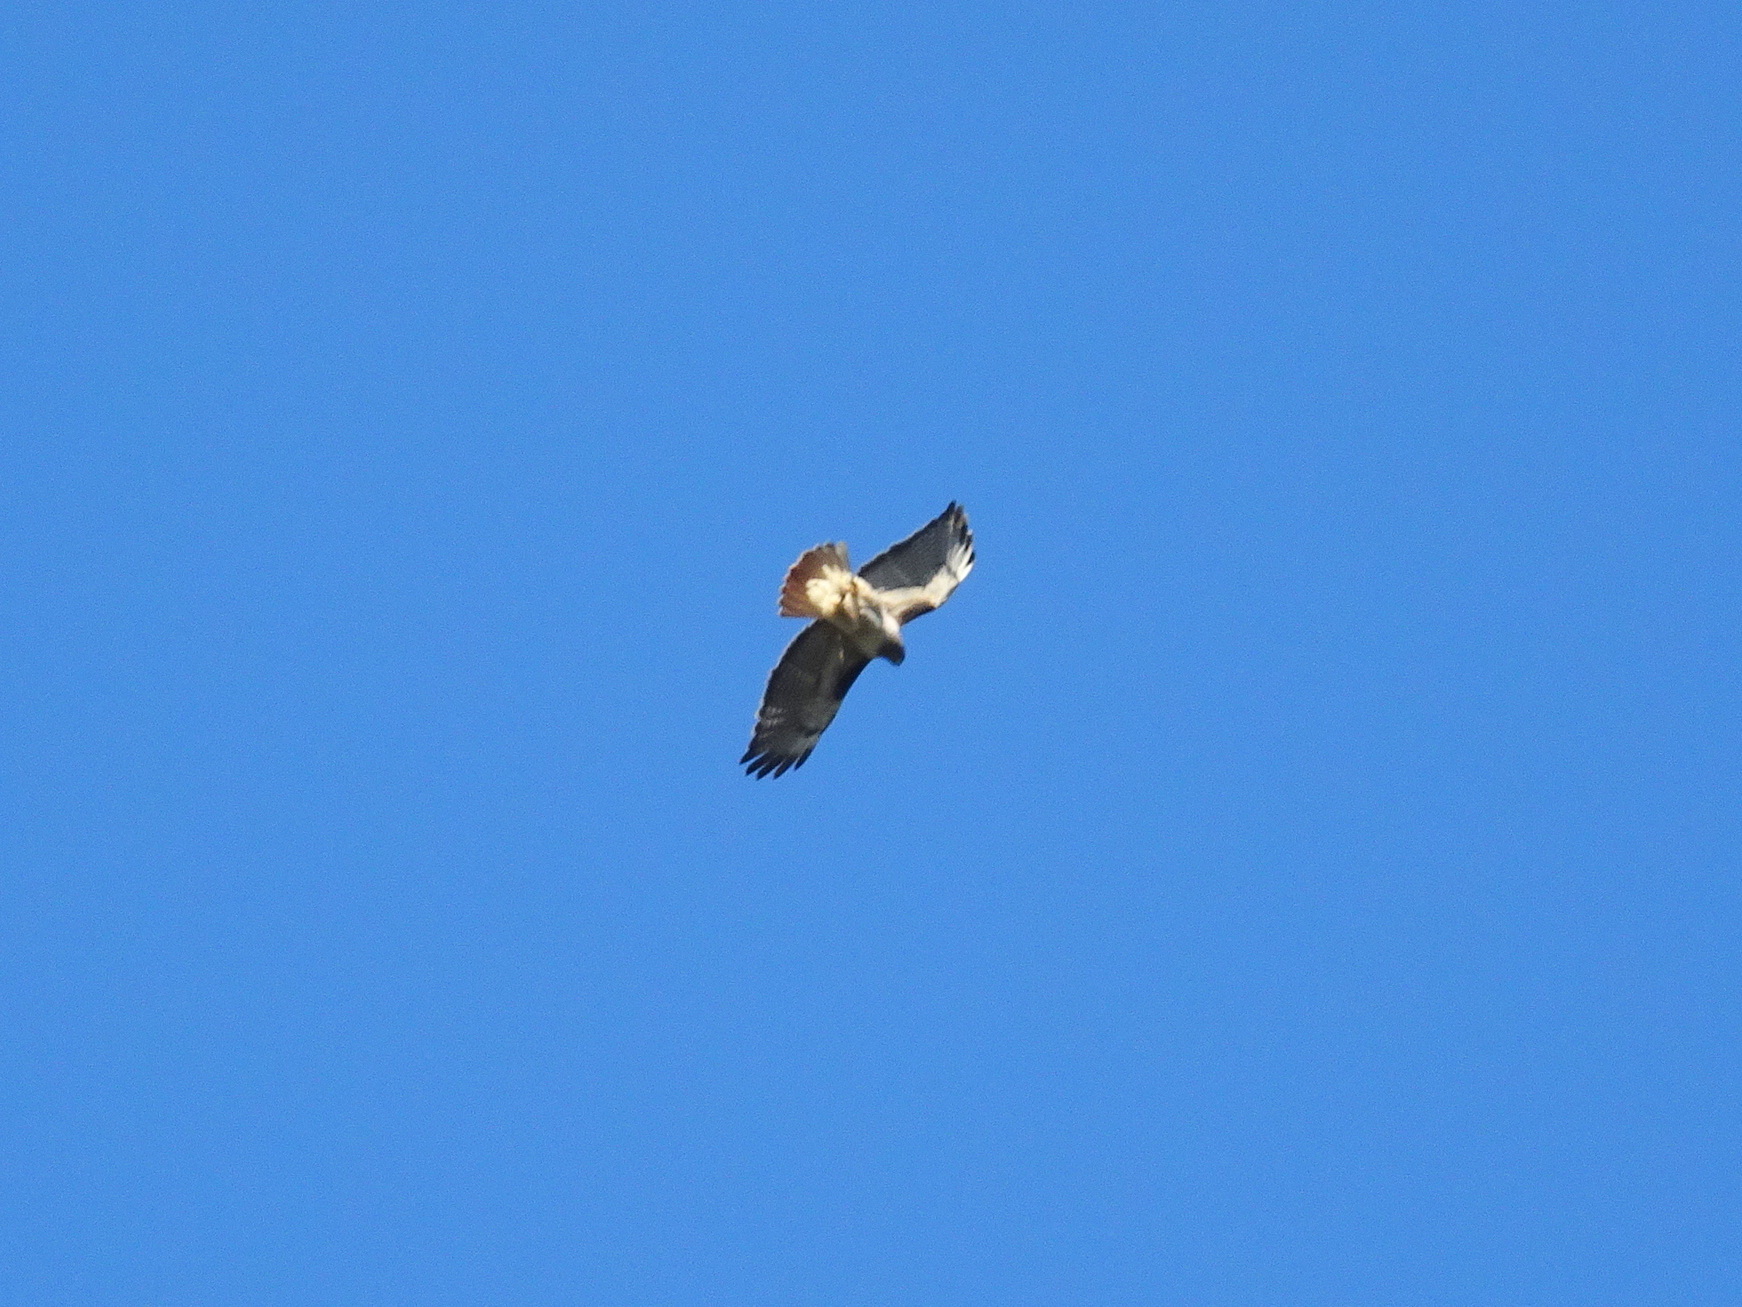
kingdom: Animalia
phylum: Chordata
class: Aves
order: Accipitriformes
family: Accipitridae
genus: Buteo
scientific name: Buteo jamaicensis
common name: Red-tailed hawk
